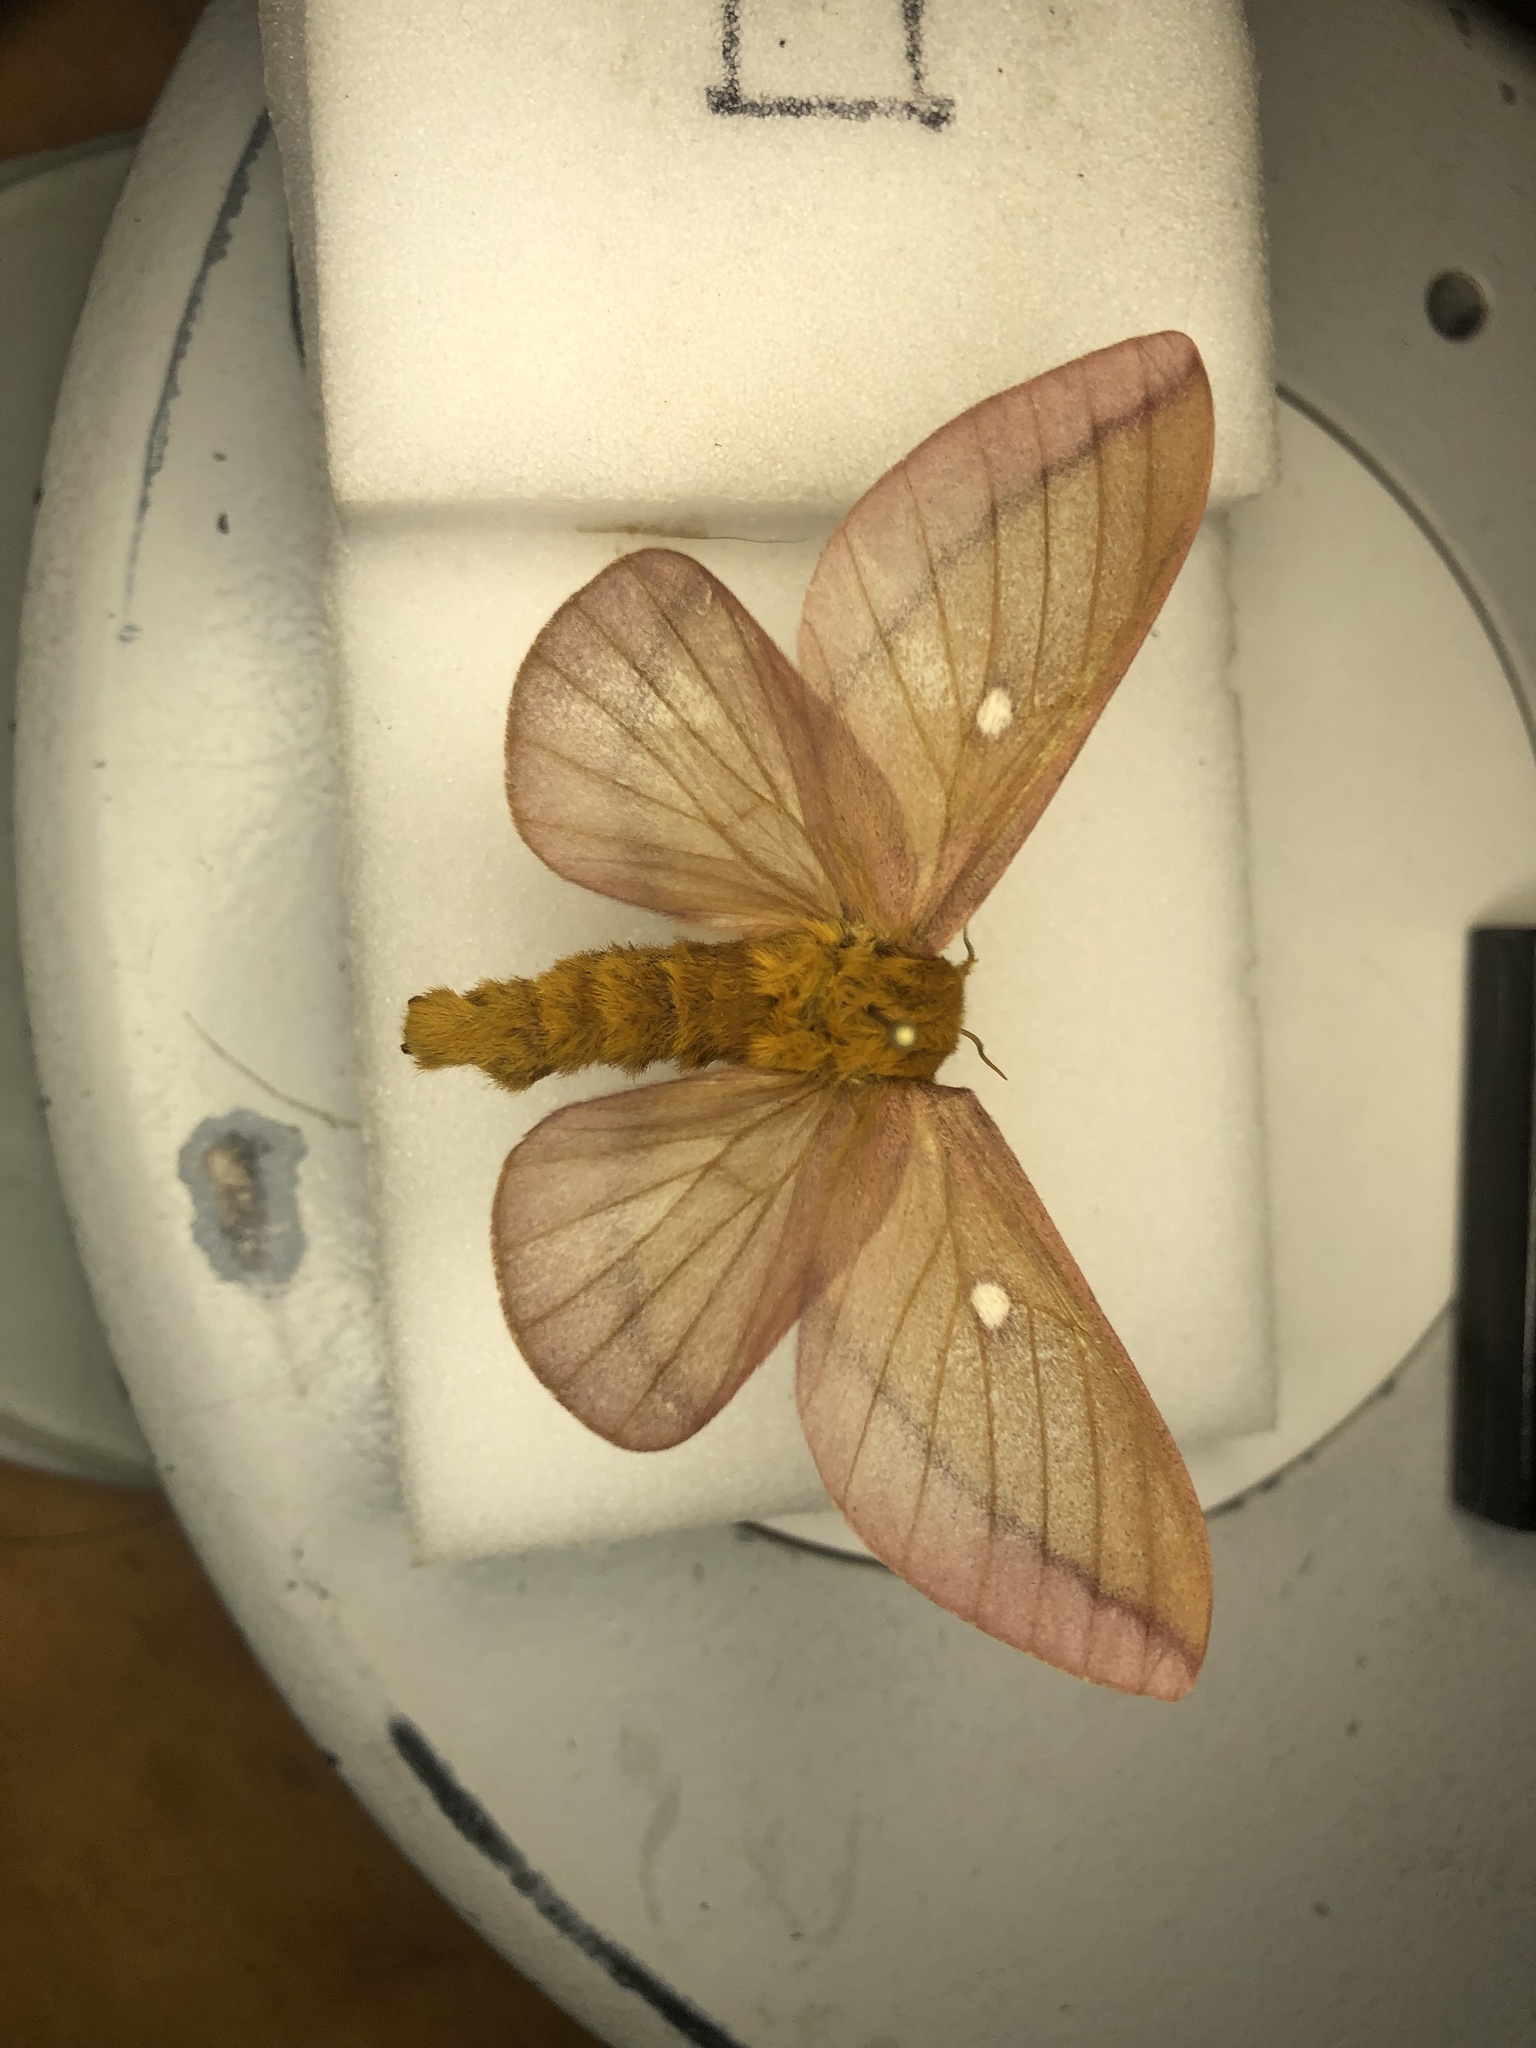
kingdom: Animalia
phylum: Arthropoda
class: Insecta
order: Lepidoptera
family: Saturniidae
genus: Anisota
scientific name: Anisota virginiensis
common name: Pink striped oakworm moth
